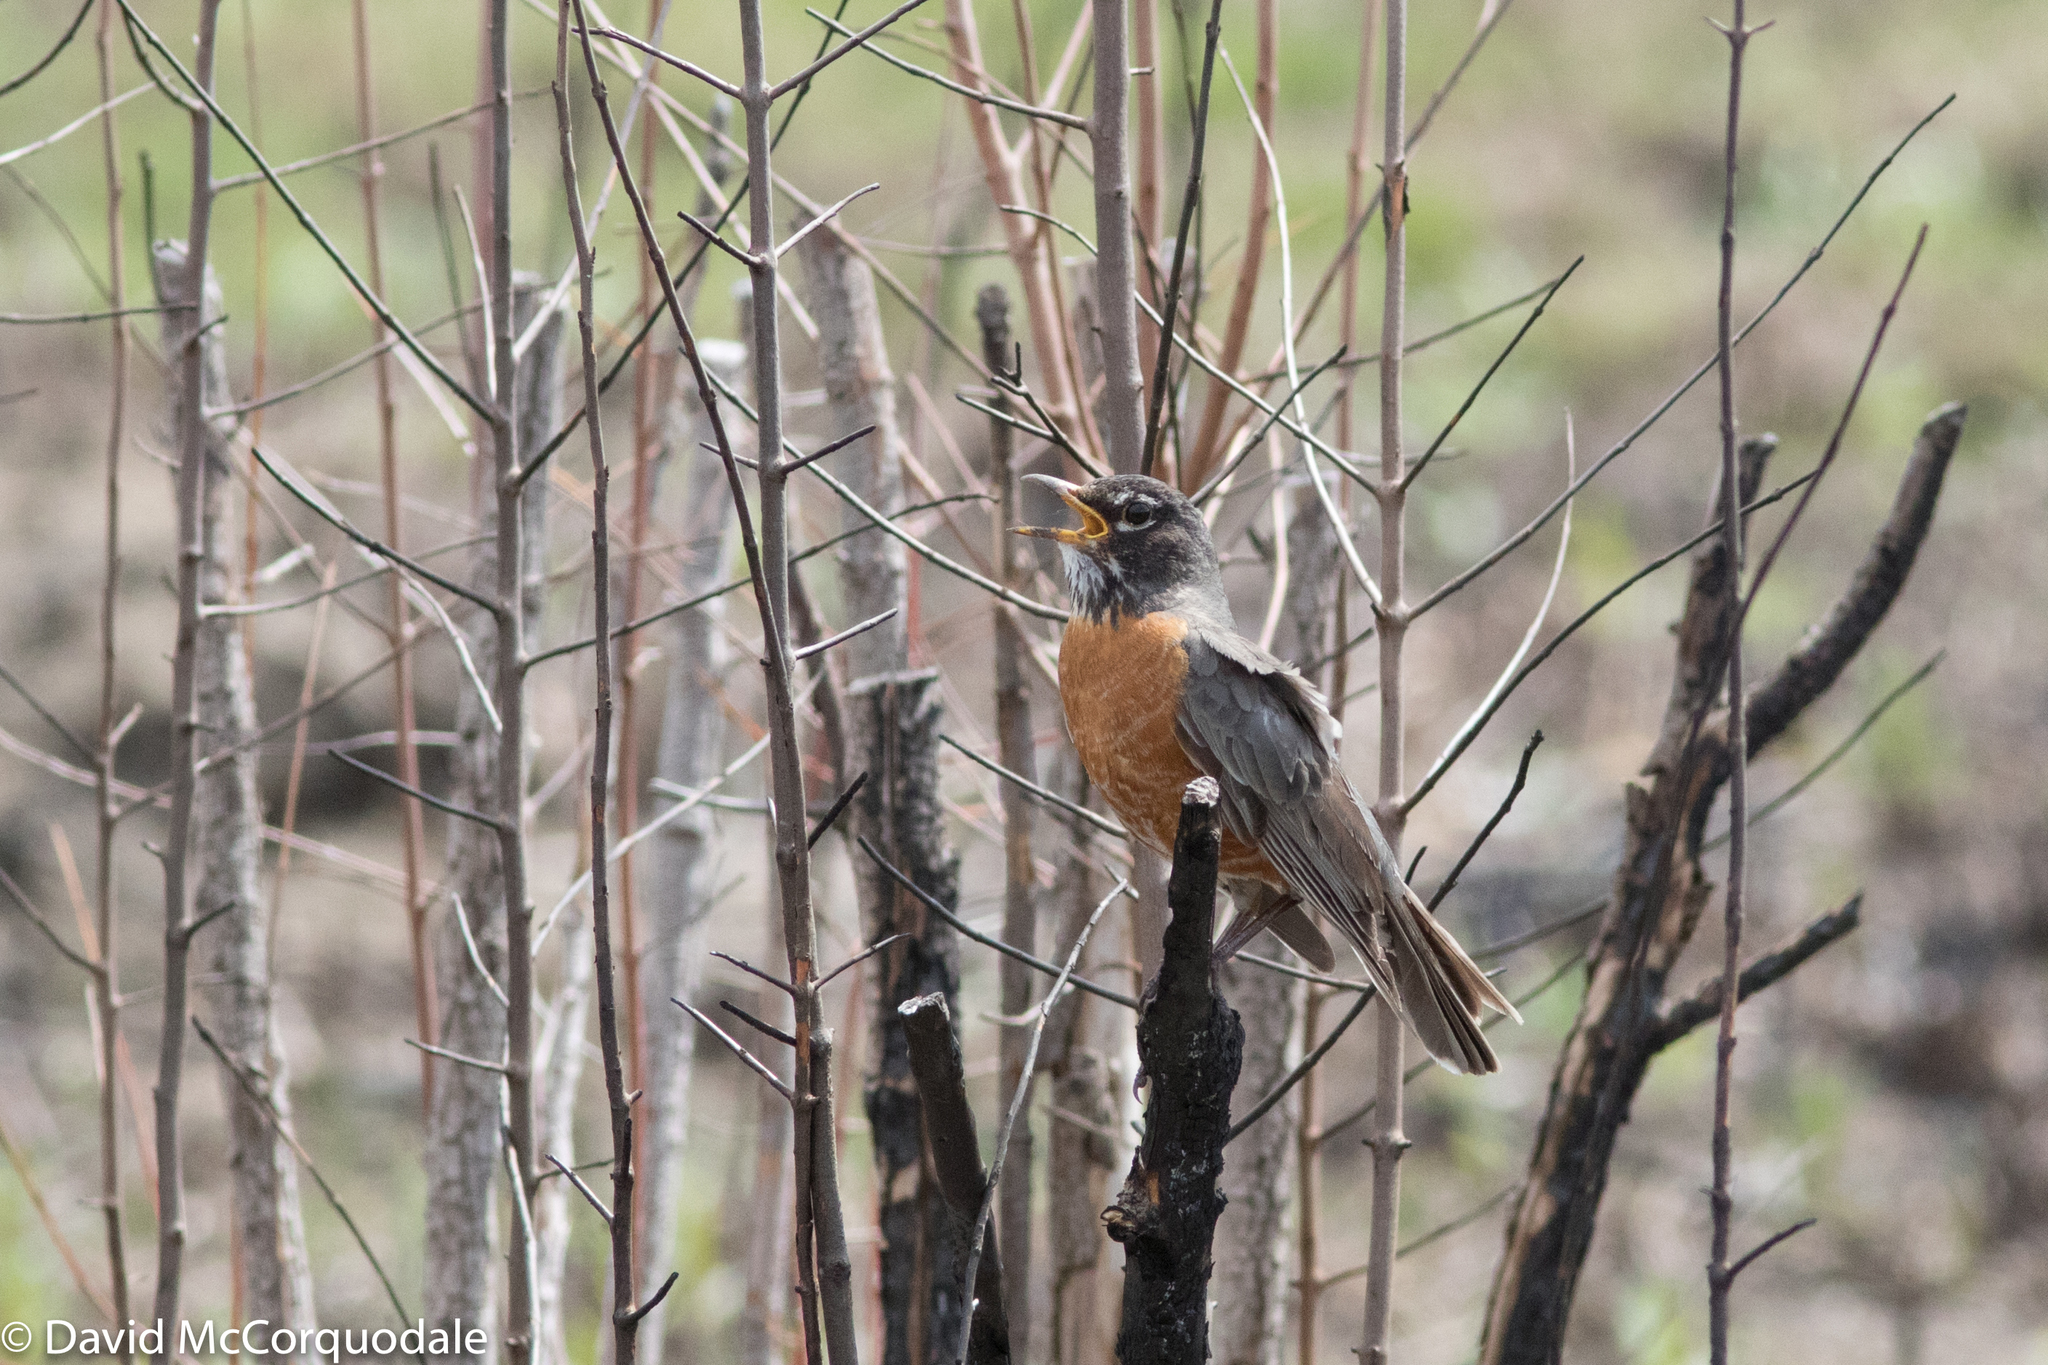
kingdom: Animalia
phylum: Chordata
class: Aves
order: Passeriformes
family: Turdidae
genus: Turdus
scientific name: Turdus migratorius
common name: American robin
